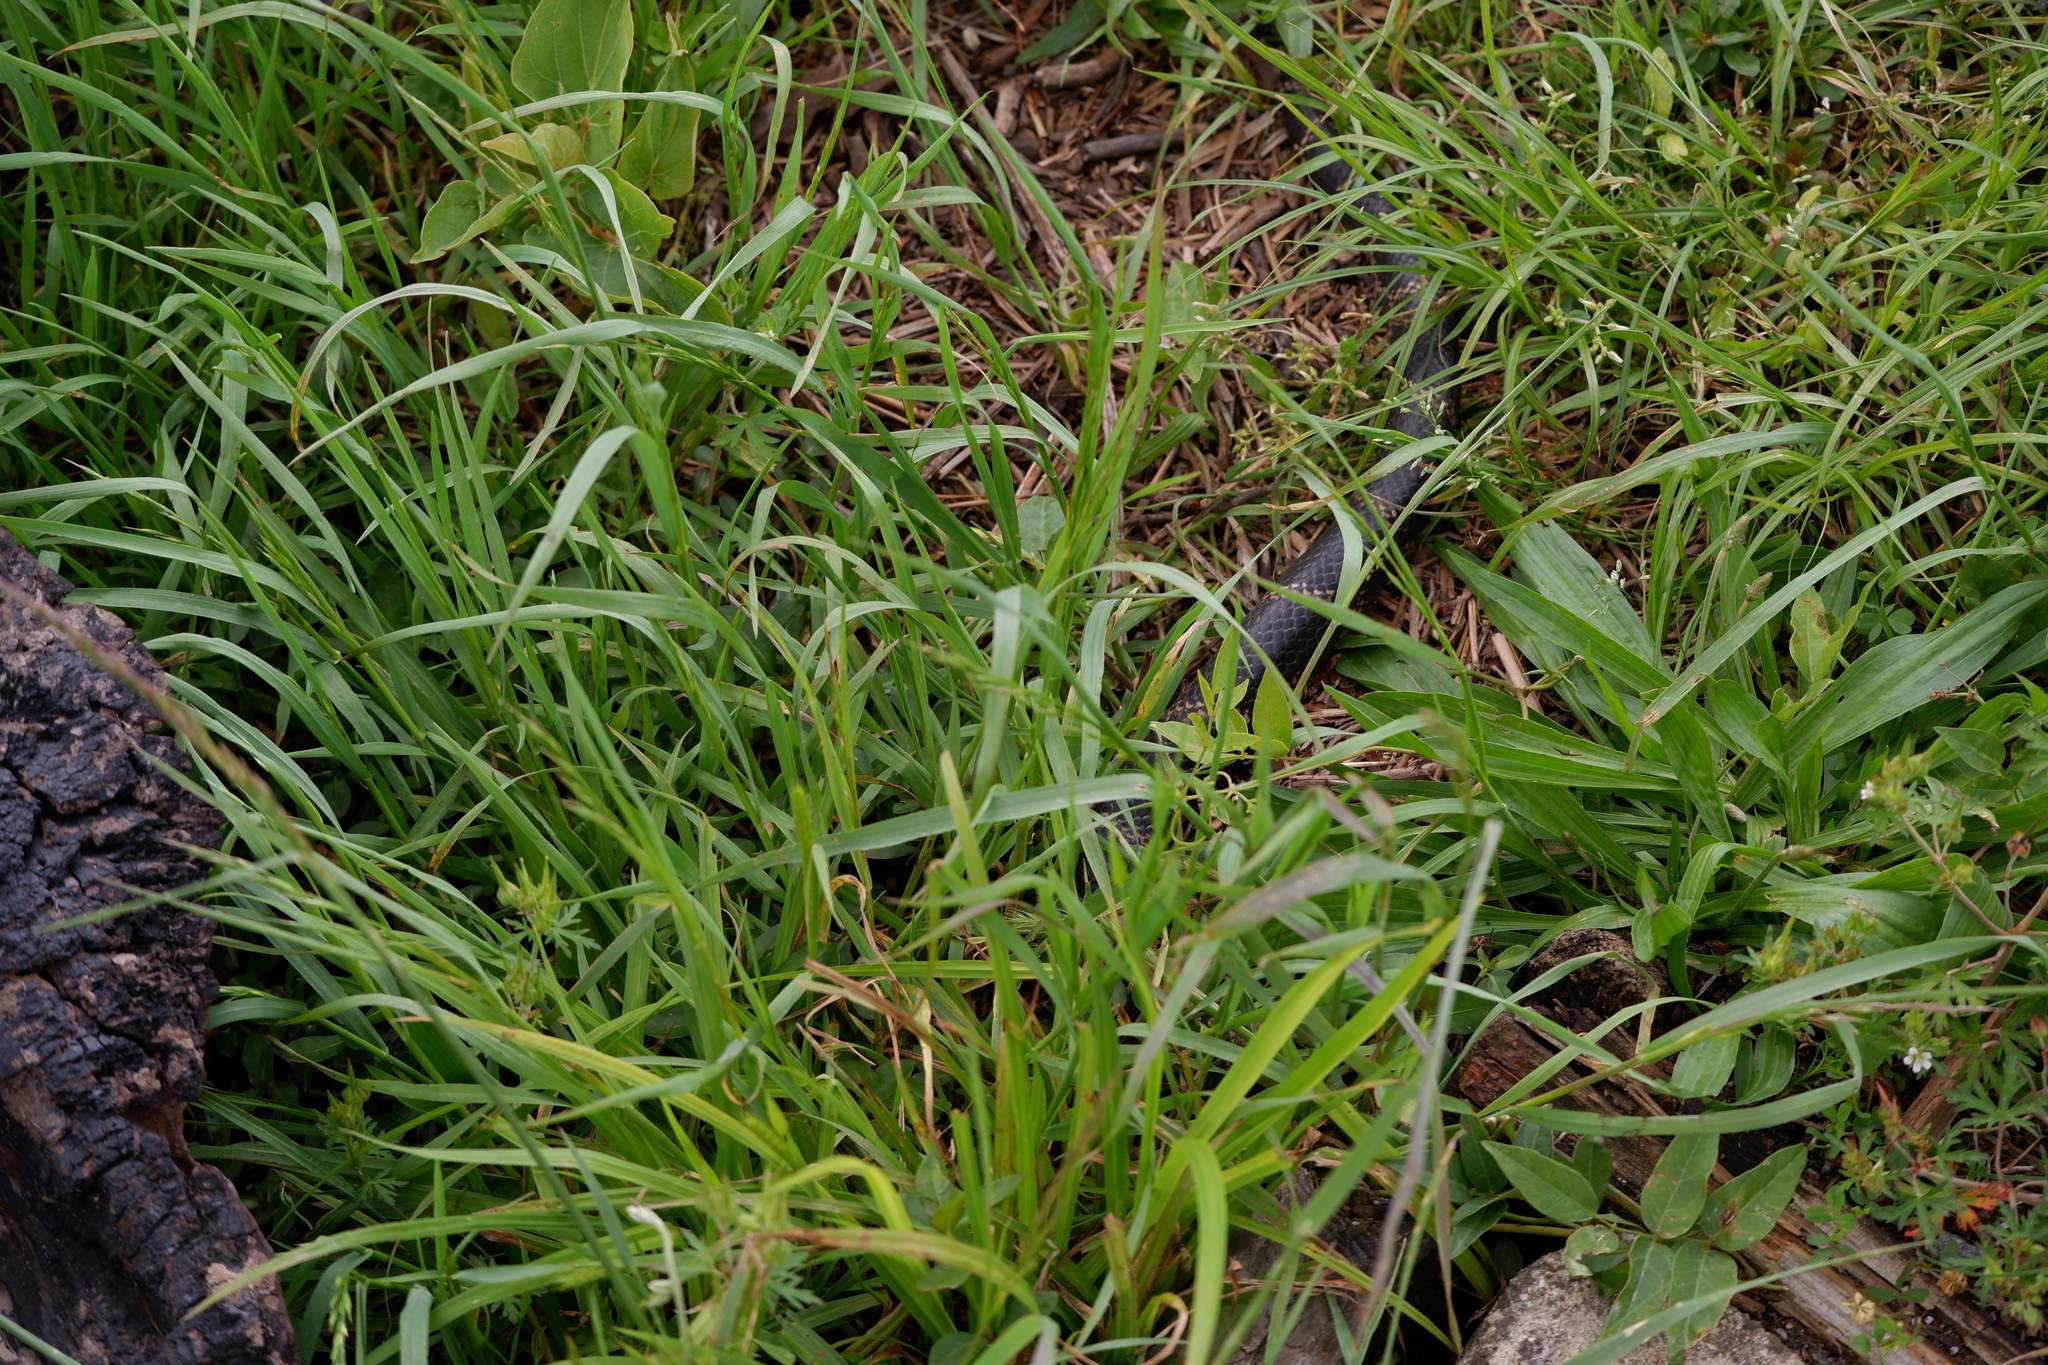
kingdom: Animalia
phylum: Chordata
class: Squamata
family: Colubridae
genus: Lampropeltis
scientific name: Lampropeltis getula
